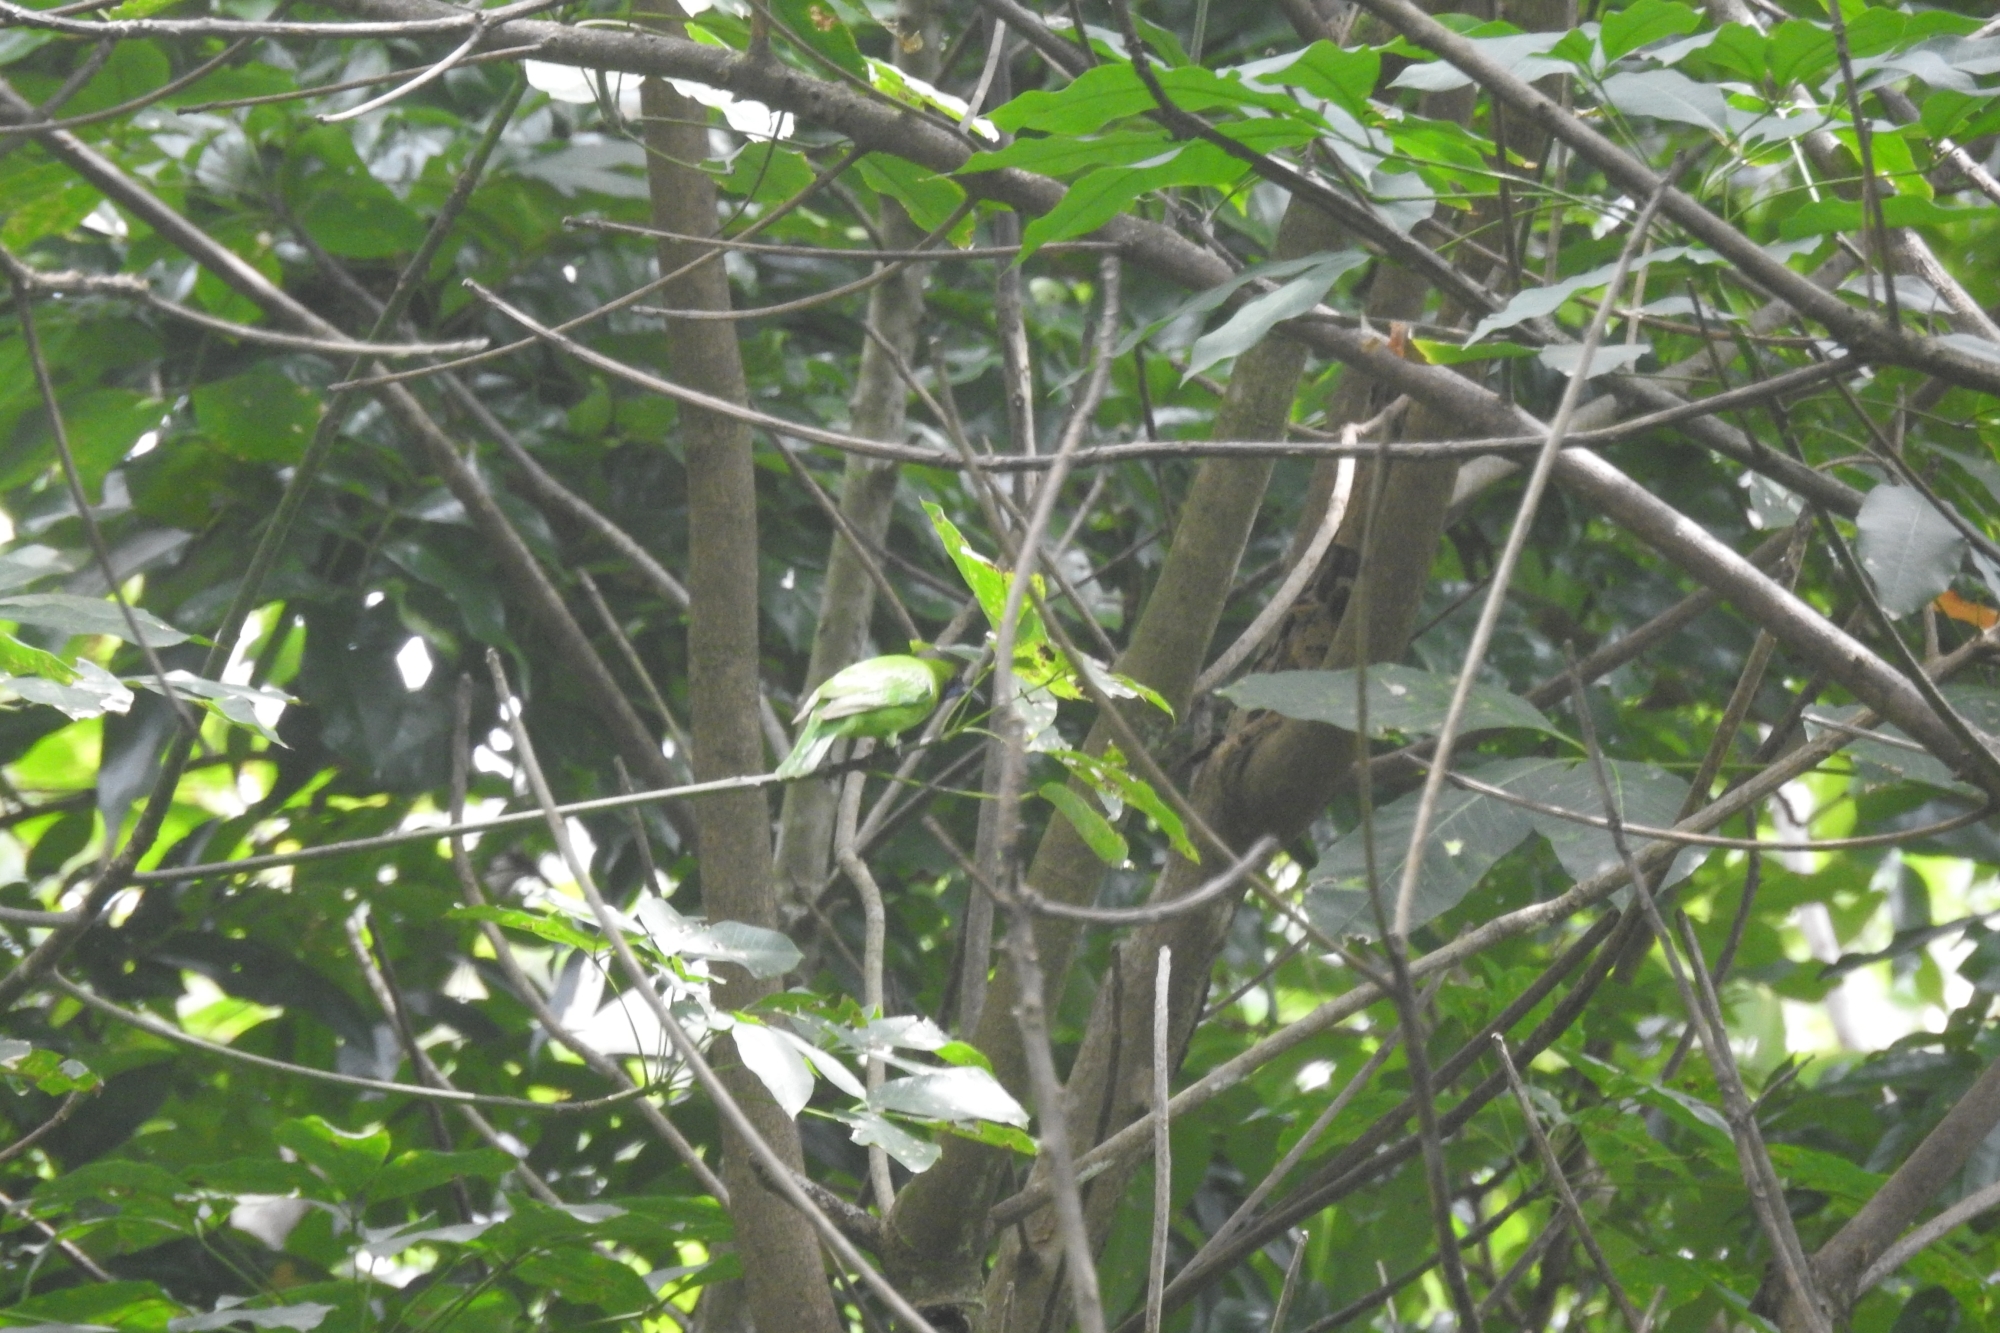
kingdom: Animalia
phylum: Chordata
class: Aves
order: Passeriformes
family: Chloropseidae
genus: Chloropsis
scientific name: Chloropsis aurifrons
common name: Golden-fronted leafbird
